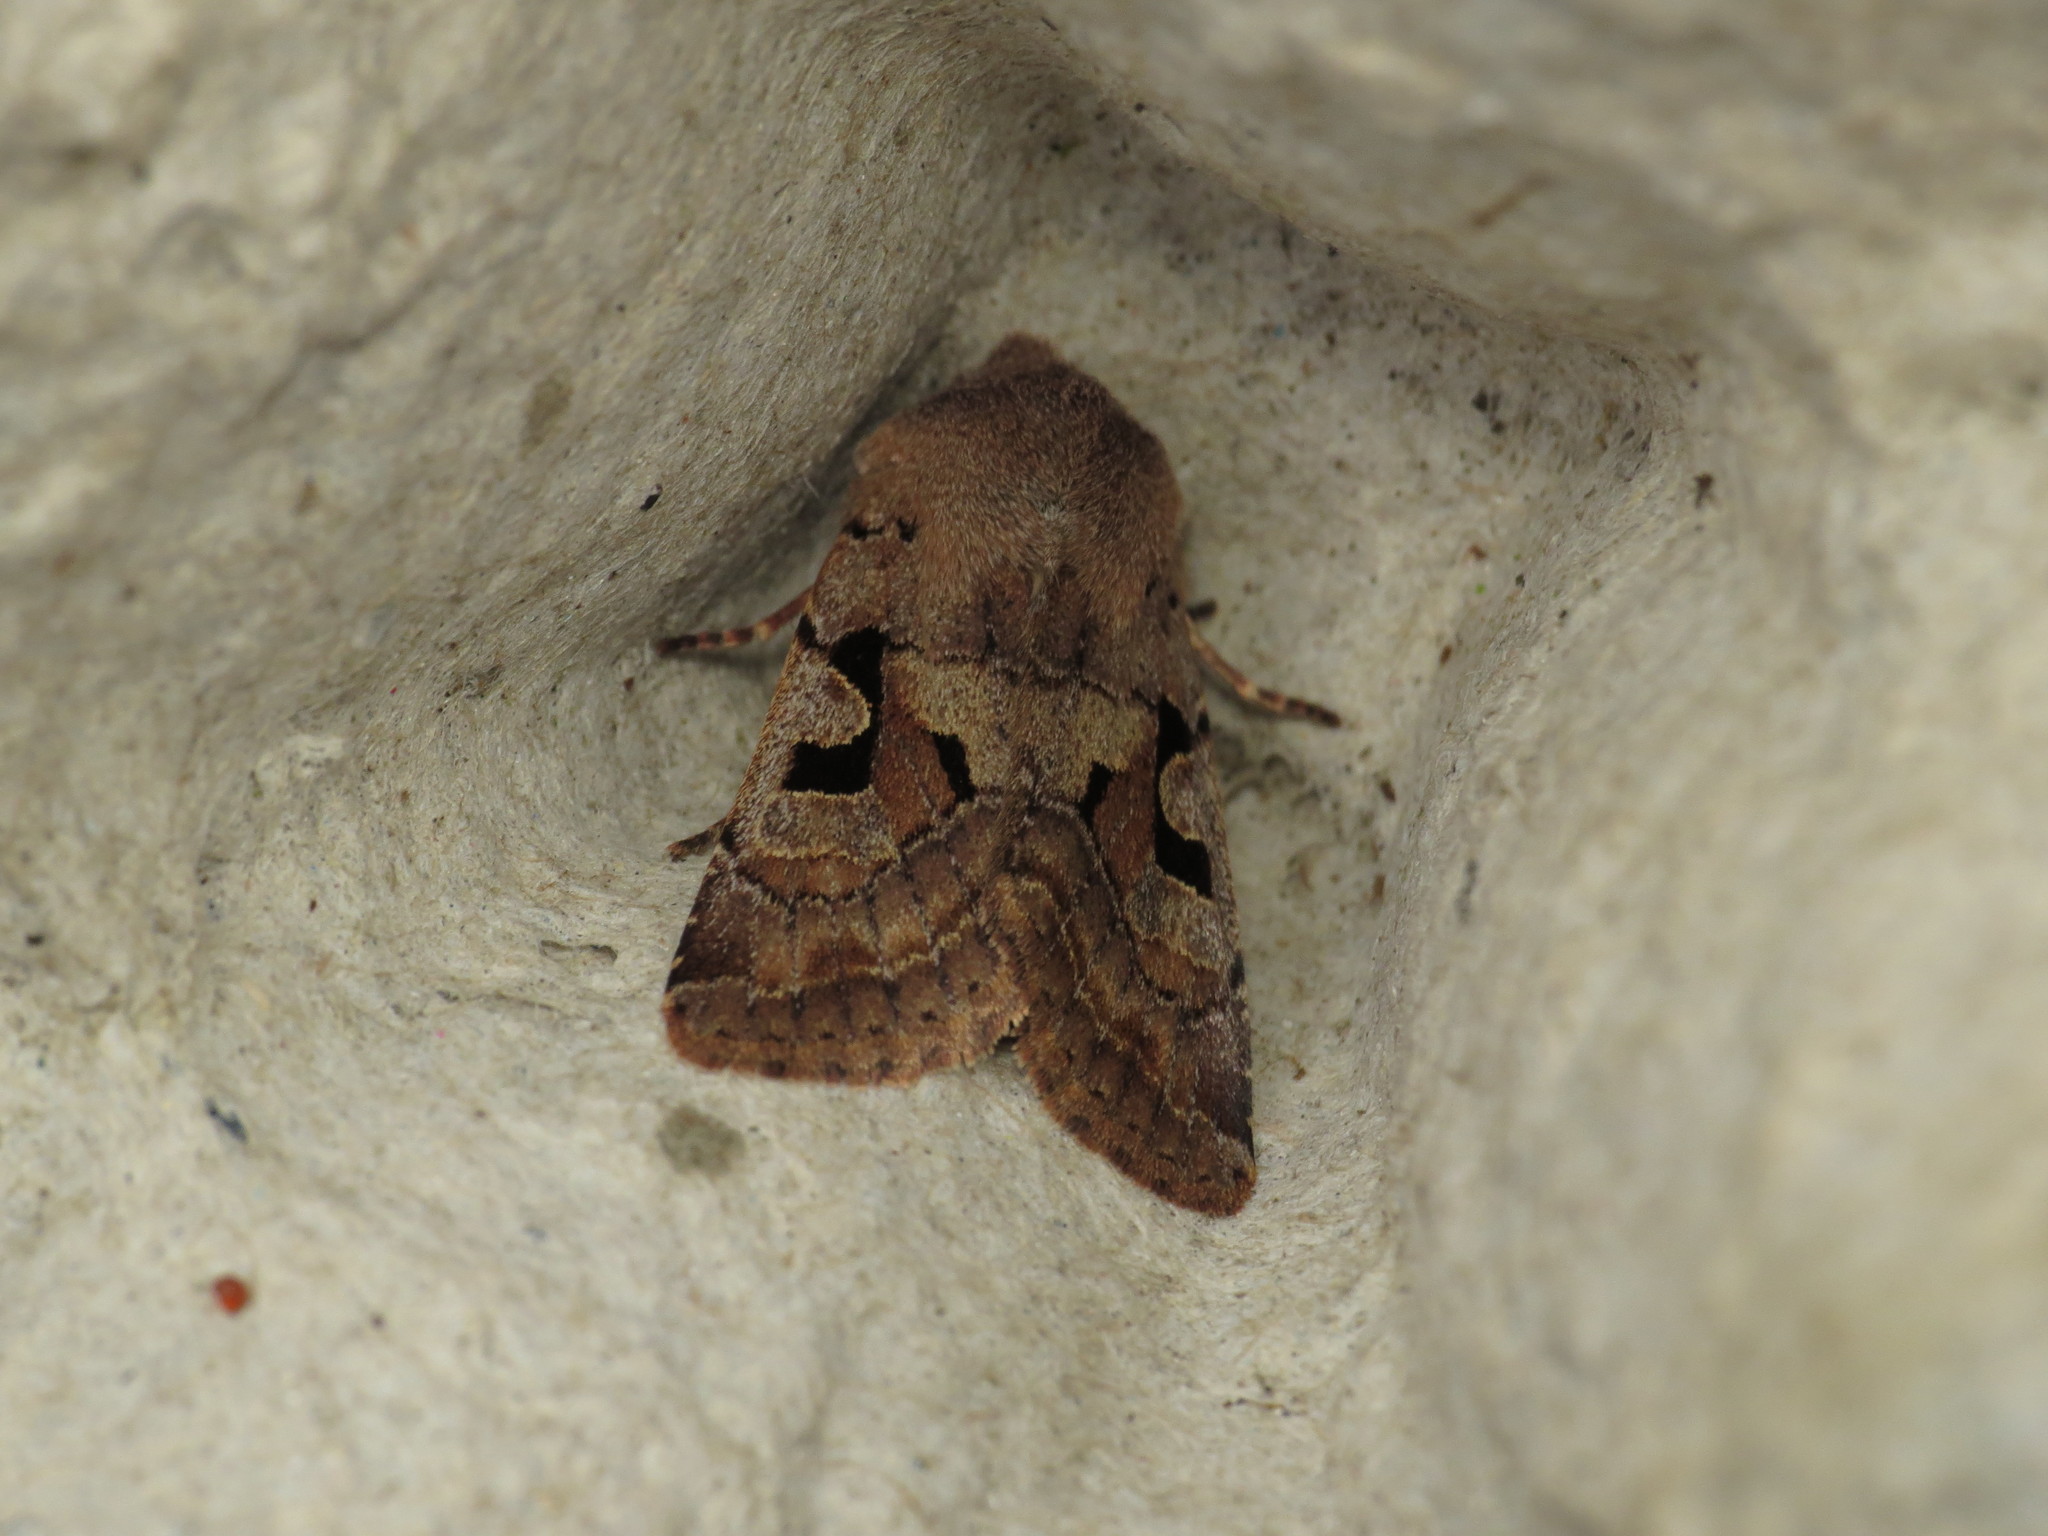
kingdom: Animalia
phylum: Arthropoda
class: Insecta
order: Lepidoptera
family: Noctuidae
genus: Orthosia
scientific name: Orthosia gothica
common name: Hebrew character
